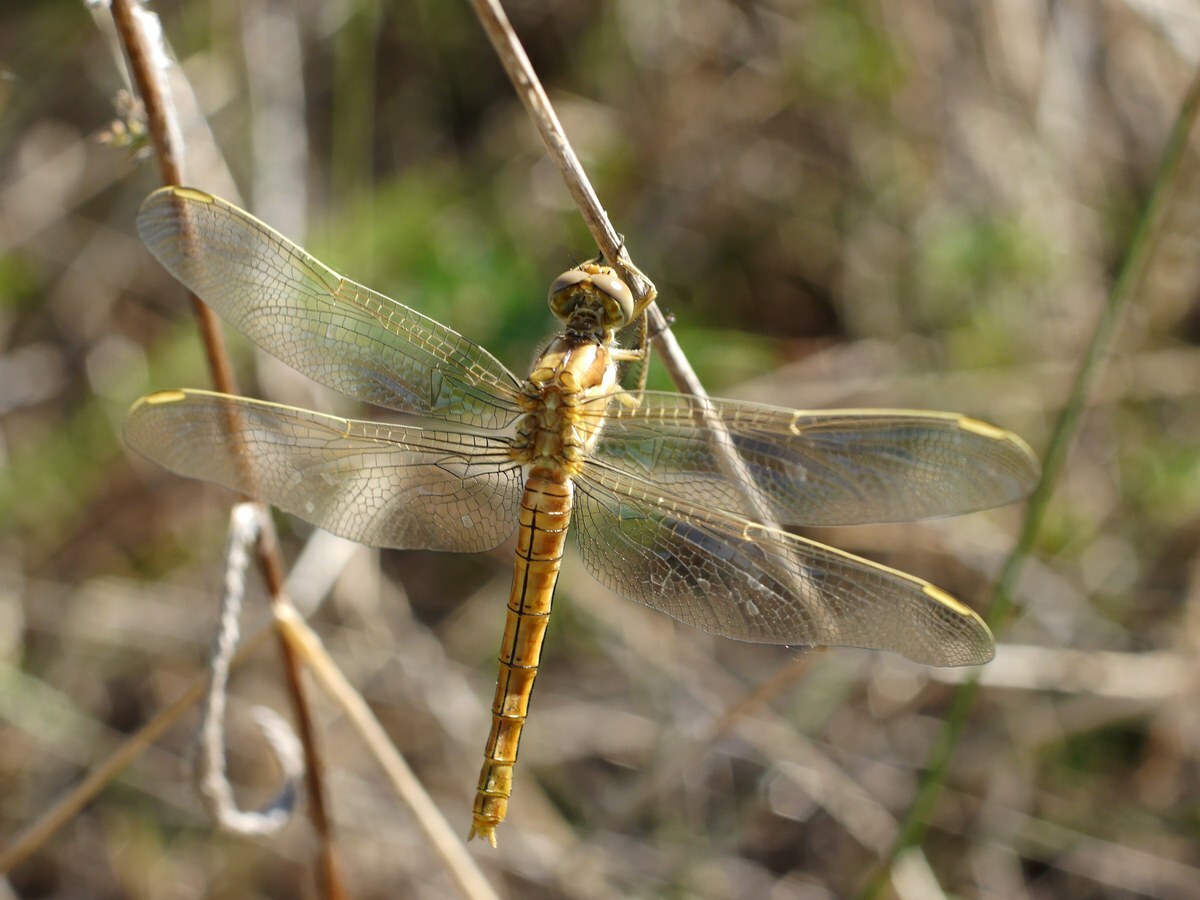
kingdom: Animalia
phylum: Arthropoda
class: Insecta
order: Odonata
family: Libellulidae
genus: Orthetrum
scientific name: Orthetrum brunneum
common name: Southern skimmer
